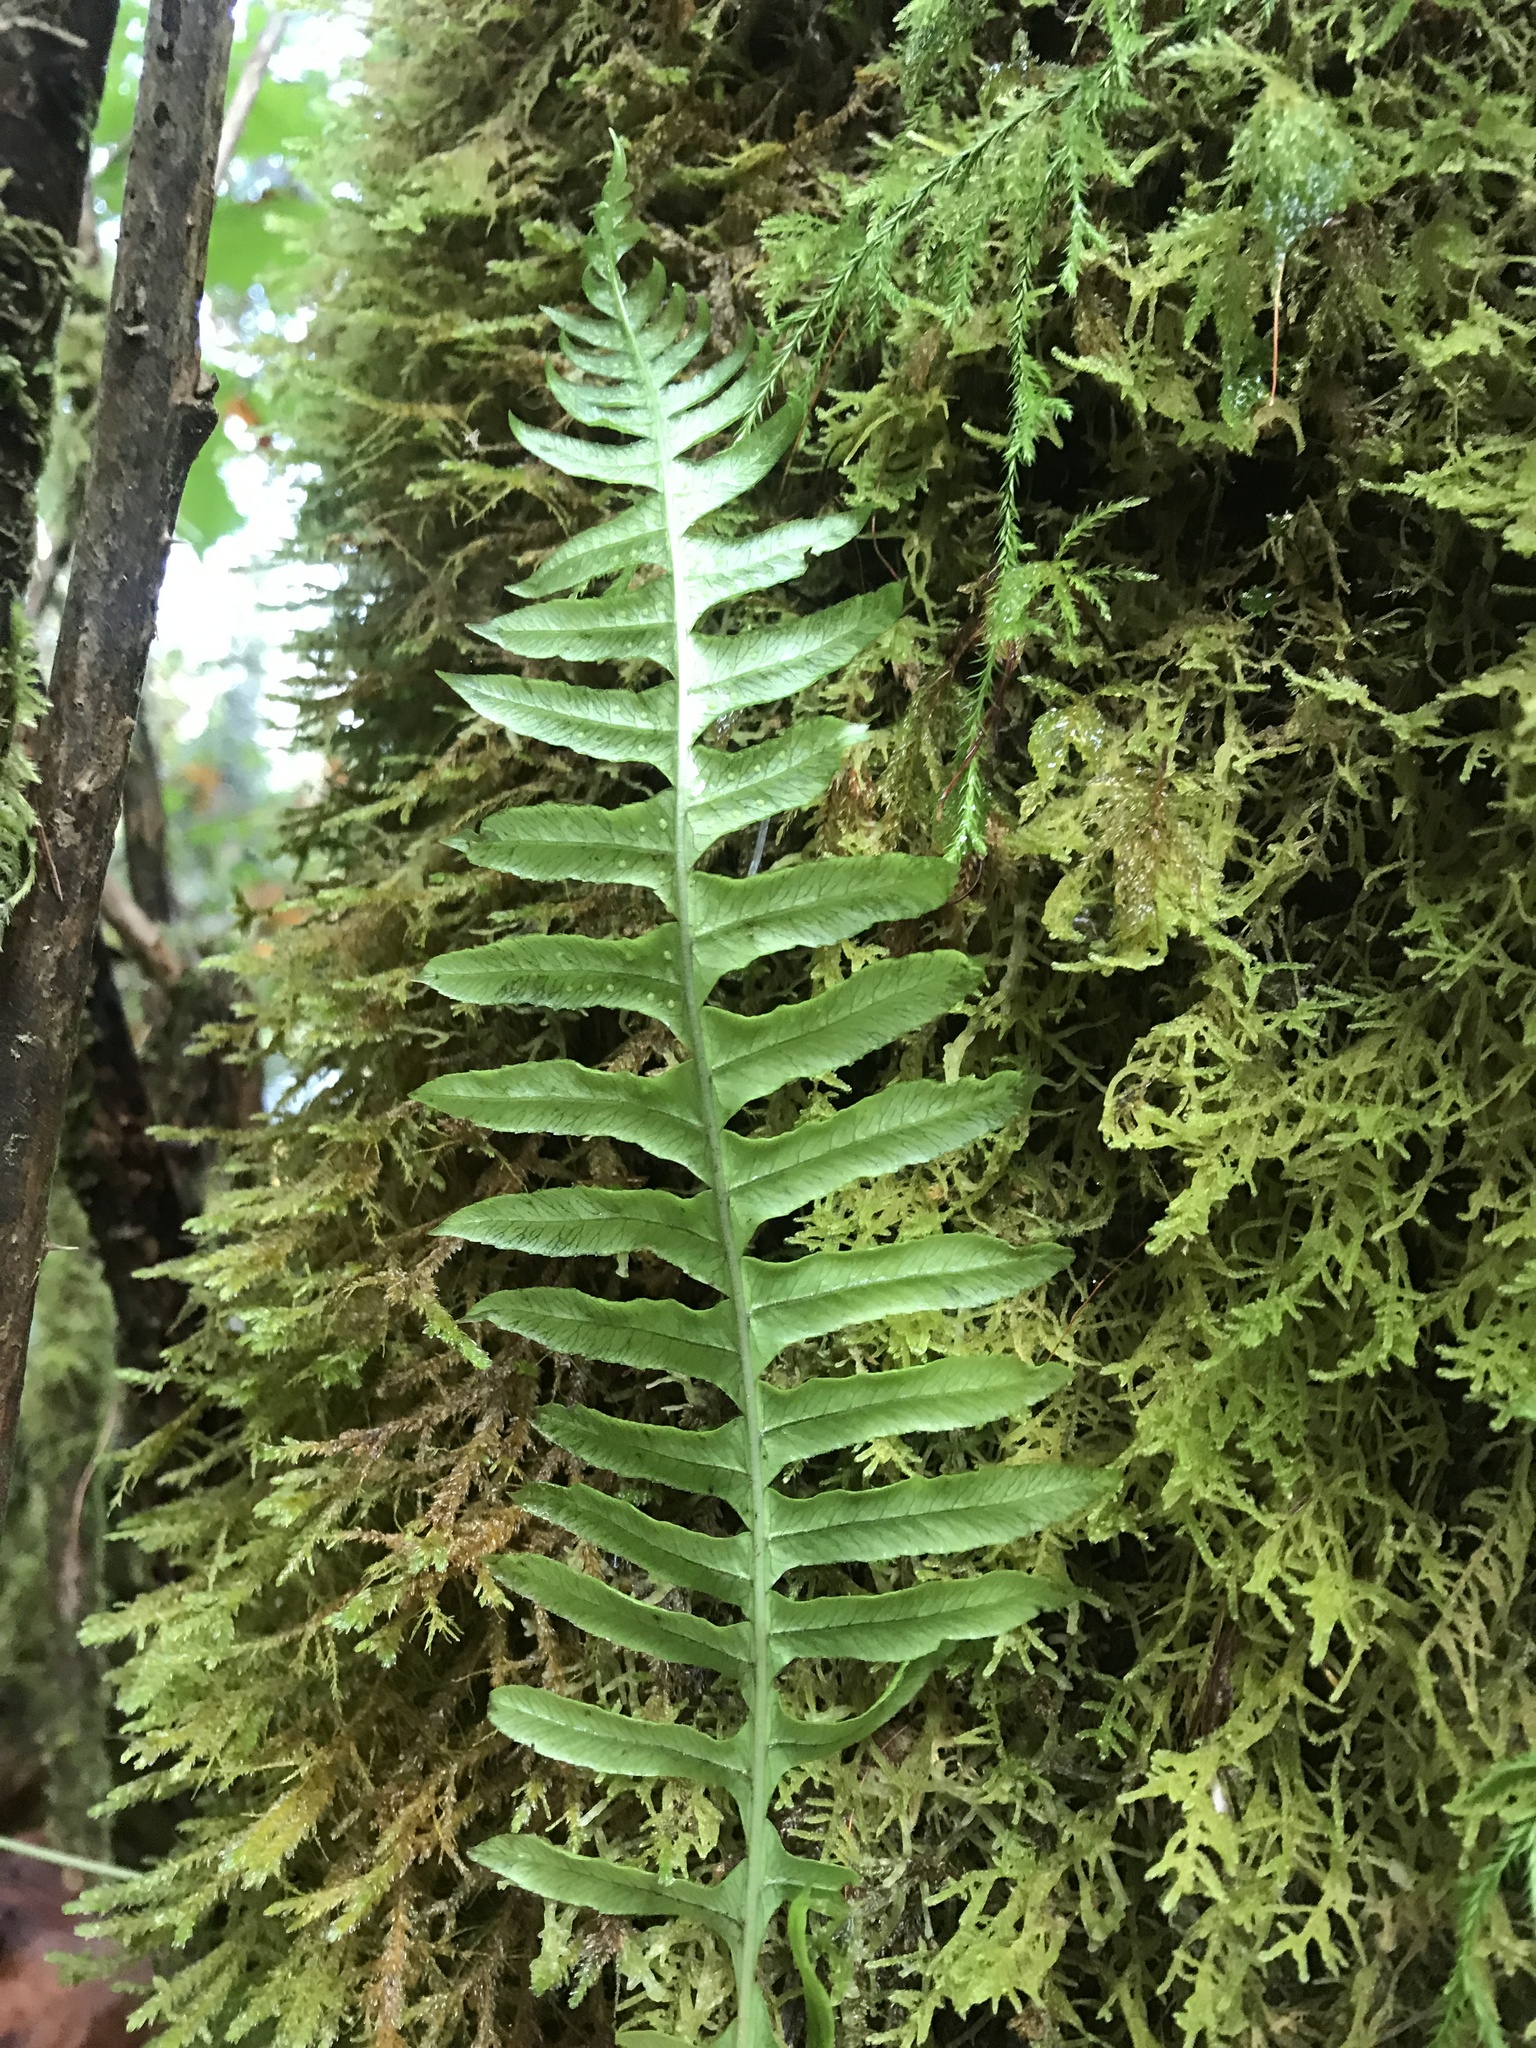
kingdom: Plantae
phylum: Tracheophyta
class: Polypodiopsida
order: Polypodiales
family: Polypodiaceae
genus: Polypodium
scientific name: Polypodium glycyrrhiza
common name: Licorice fern
